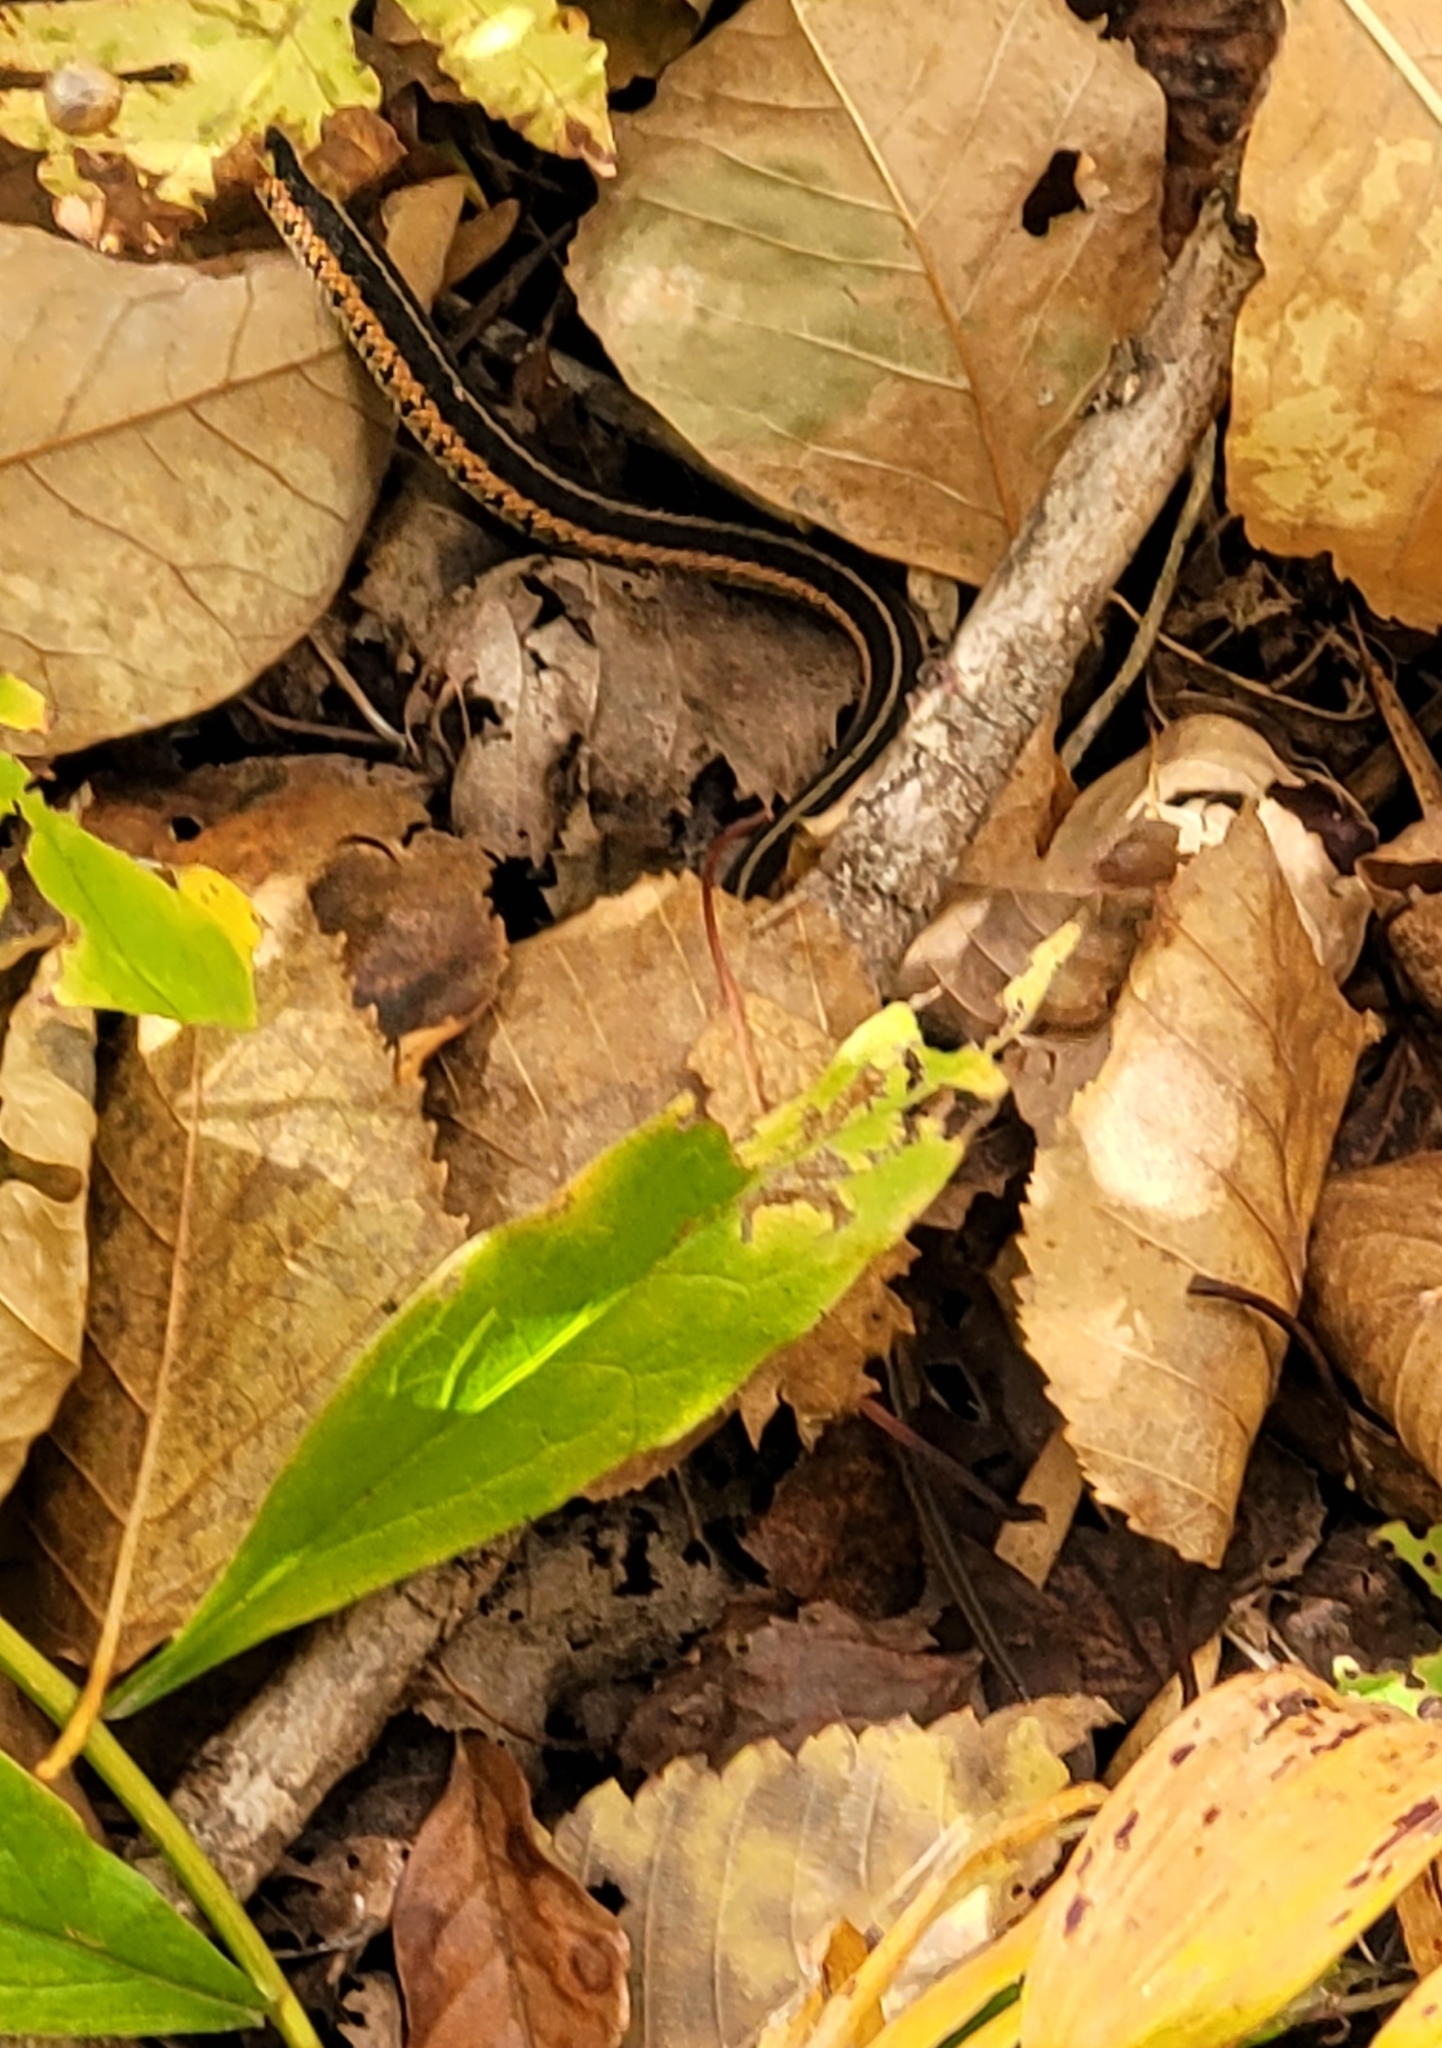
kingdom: Animalia
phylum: Chordata
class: Squamata
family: Colubridae
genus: Thamnophis
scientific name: Thamnophis sirtalis
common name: Common garter snake
